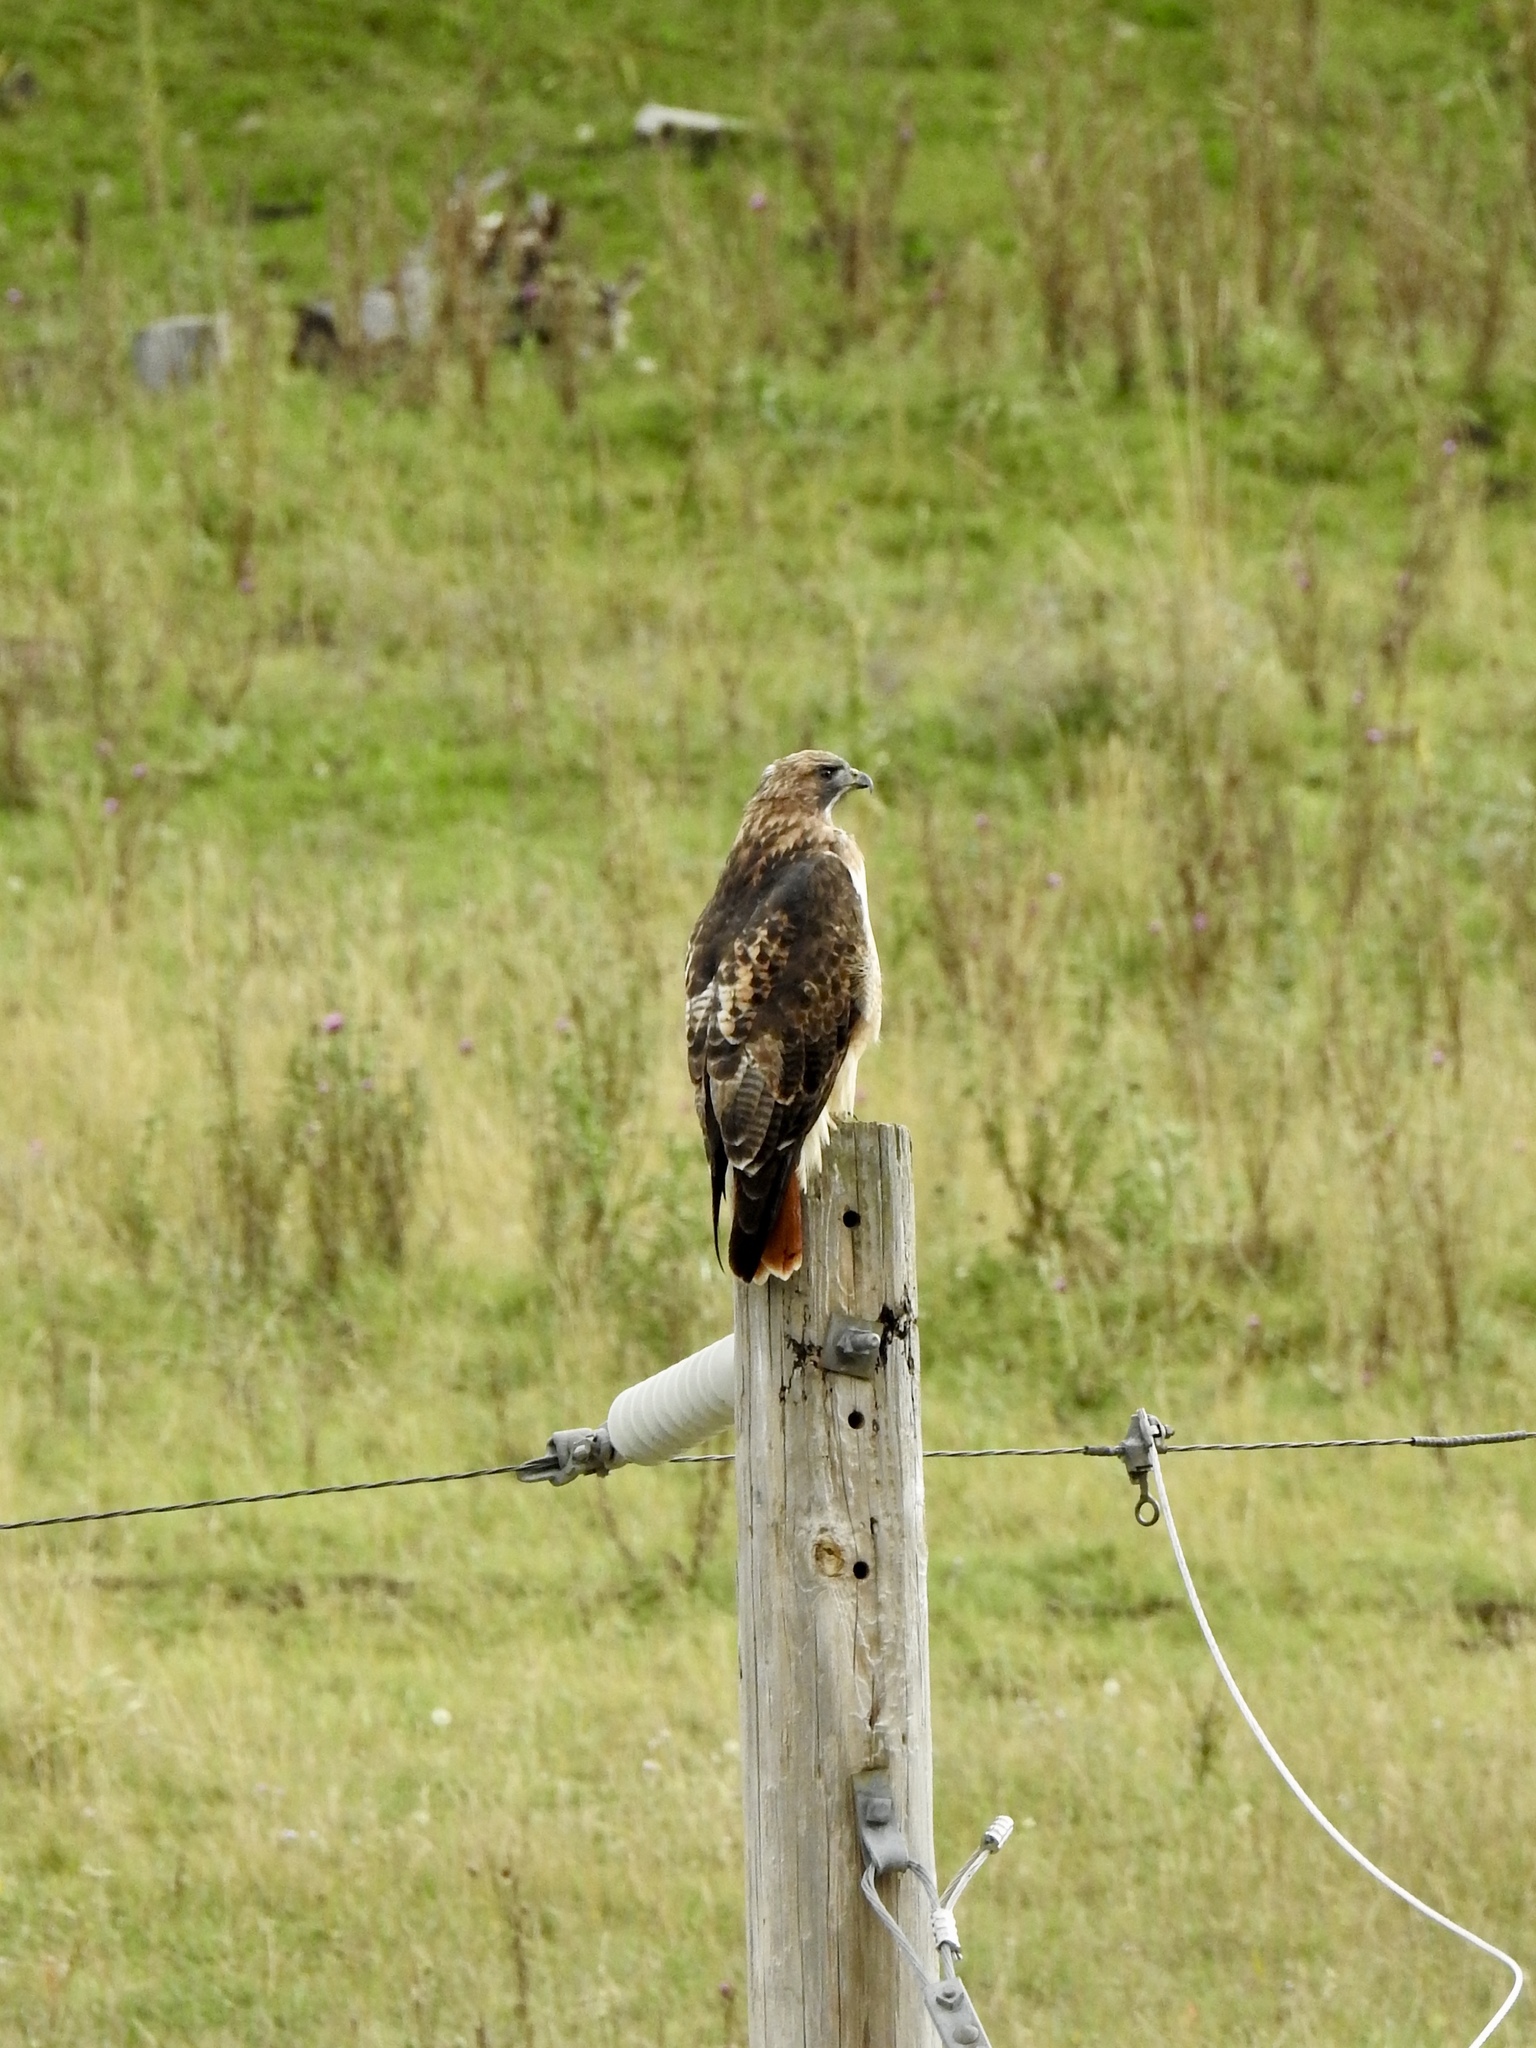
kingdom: Animalia
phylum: Chordata
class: Aves
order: Accipitriformes
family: Accipitridae
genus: Buteo
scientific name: Buteo jamaicensis
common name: Red-tailed hawk
